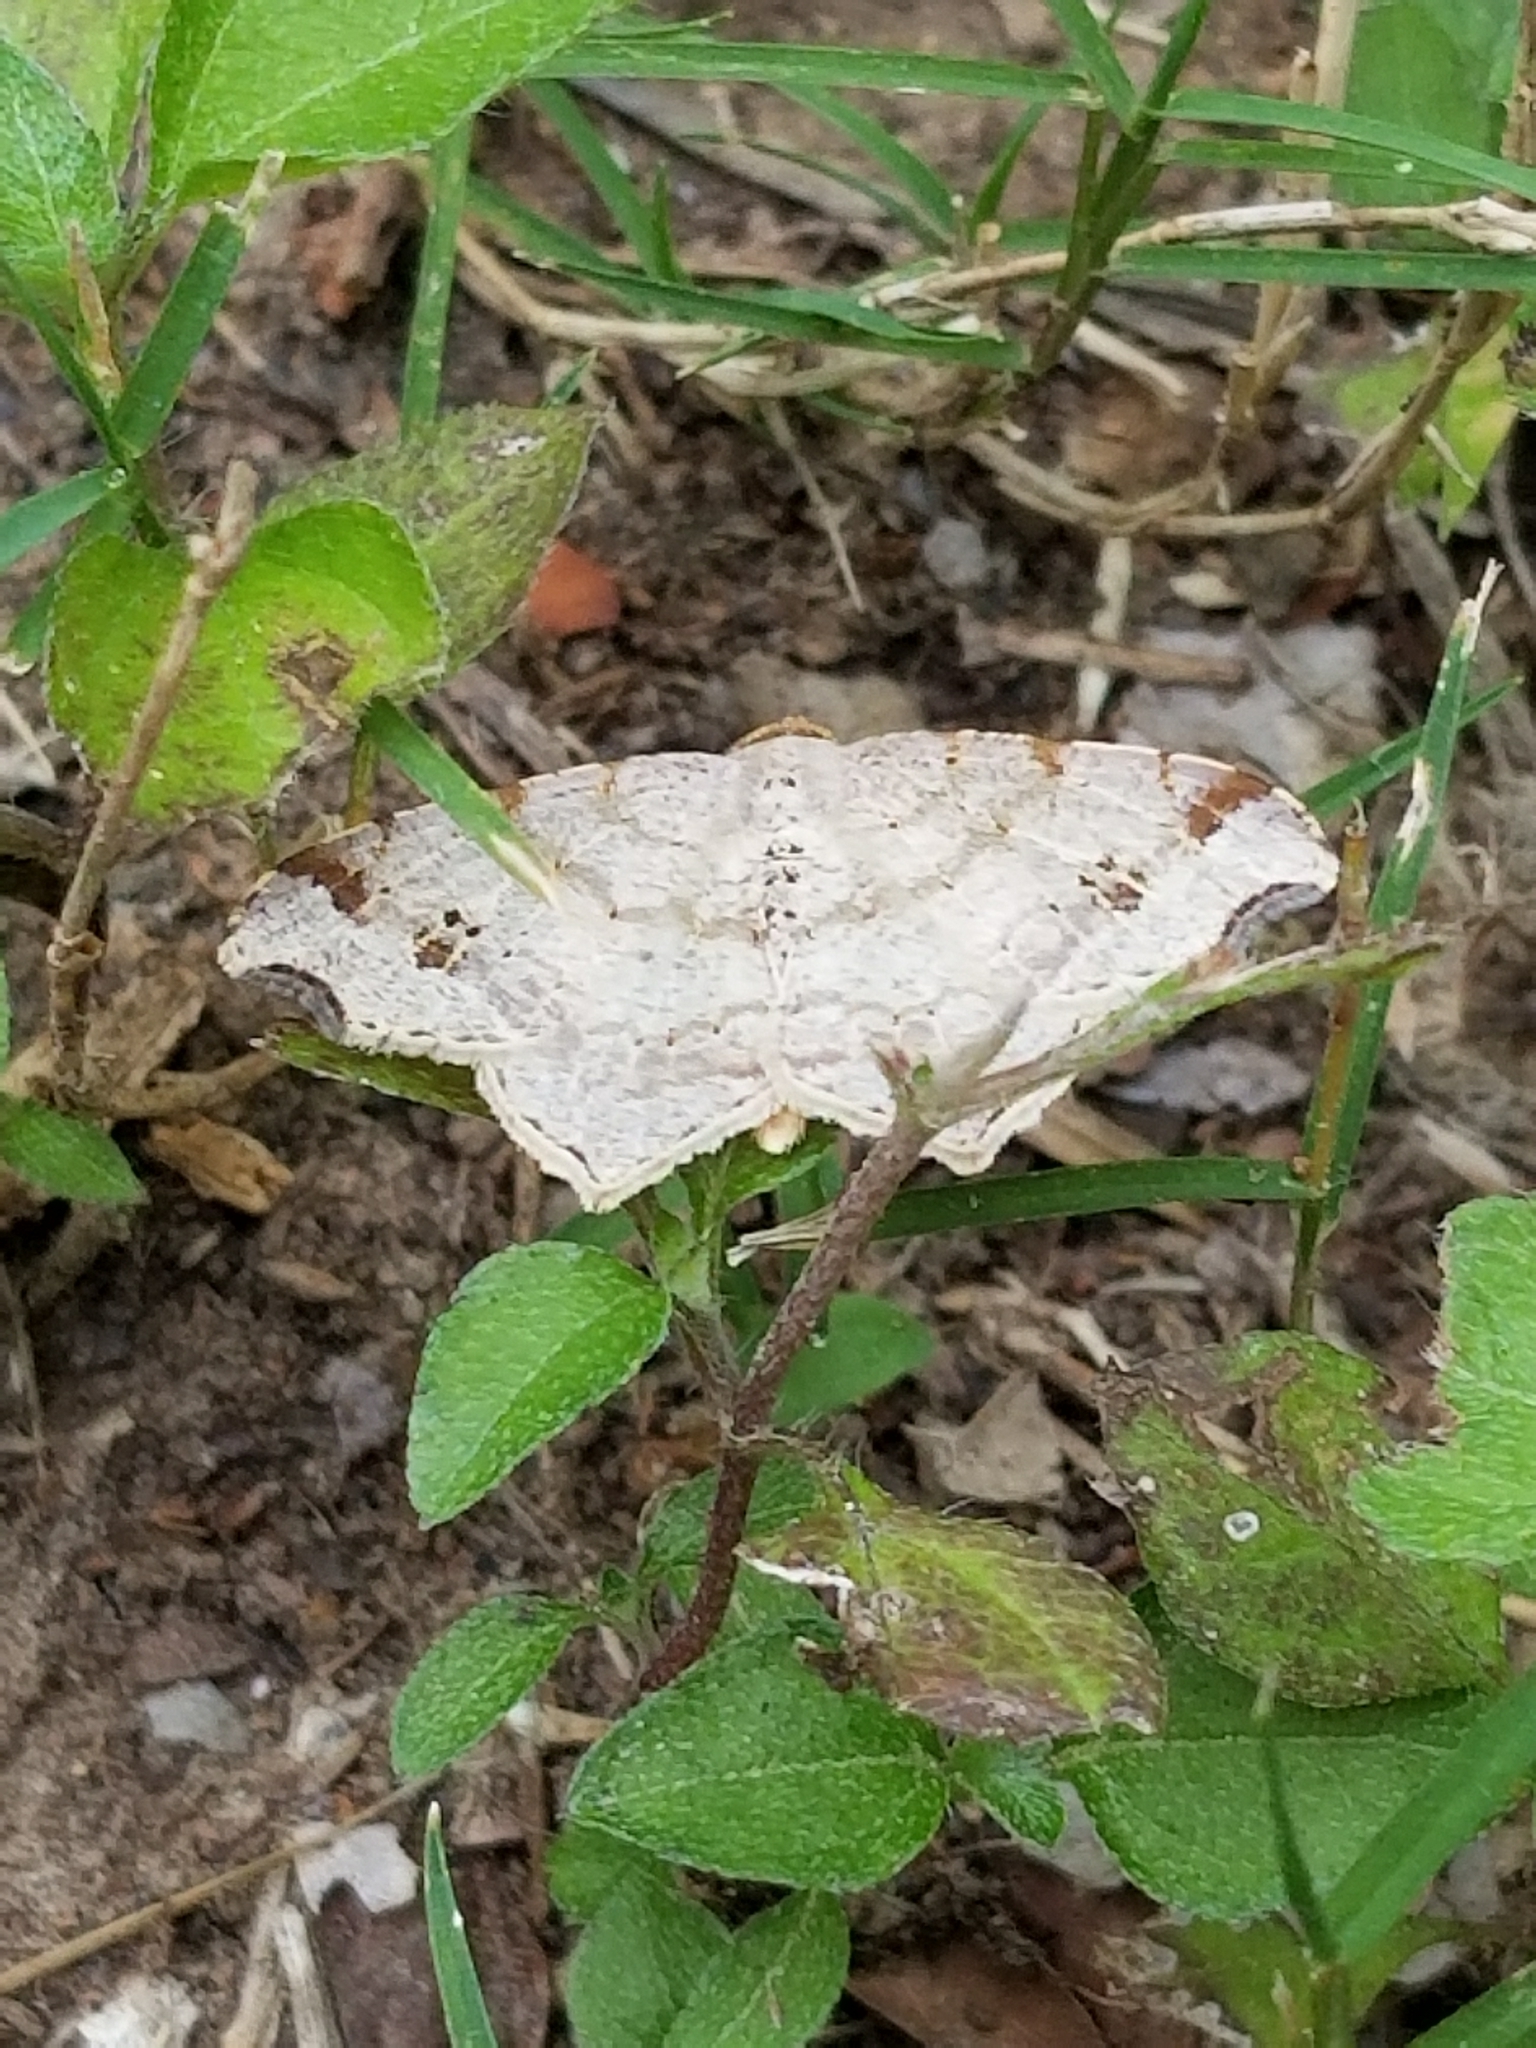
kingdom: Animalia
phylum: Arthropoda
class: Insecta
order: Lepidoptera
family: Geometridae
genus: Macaria
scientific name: Macaria aemulataria
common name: Common angle
